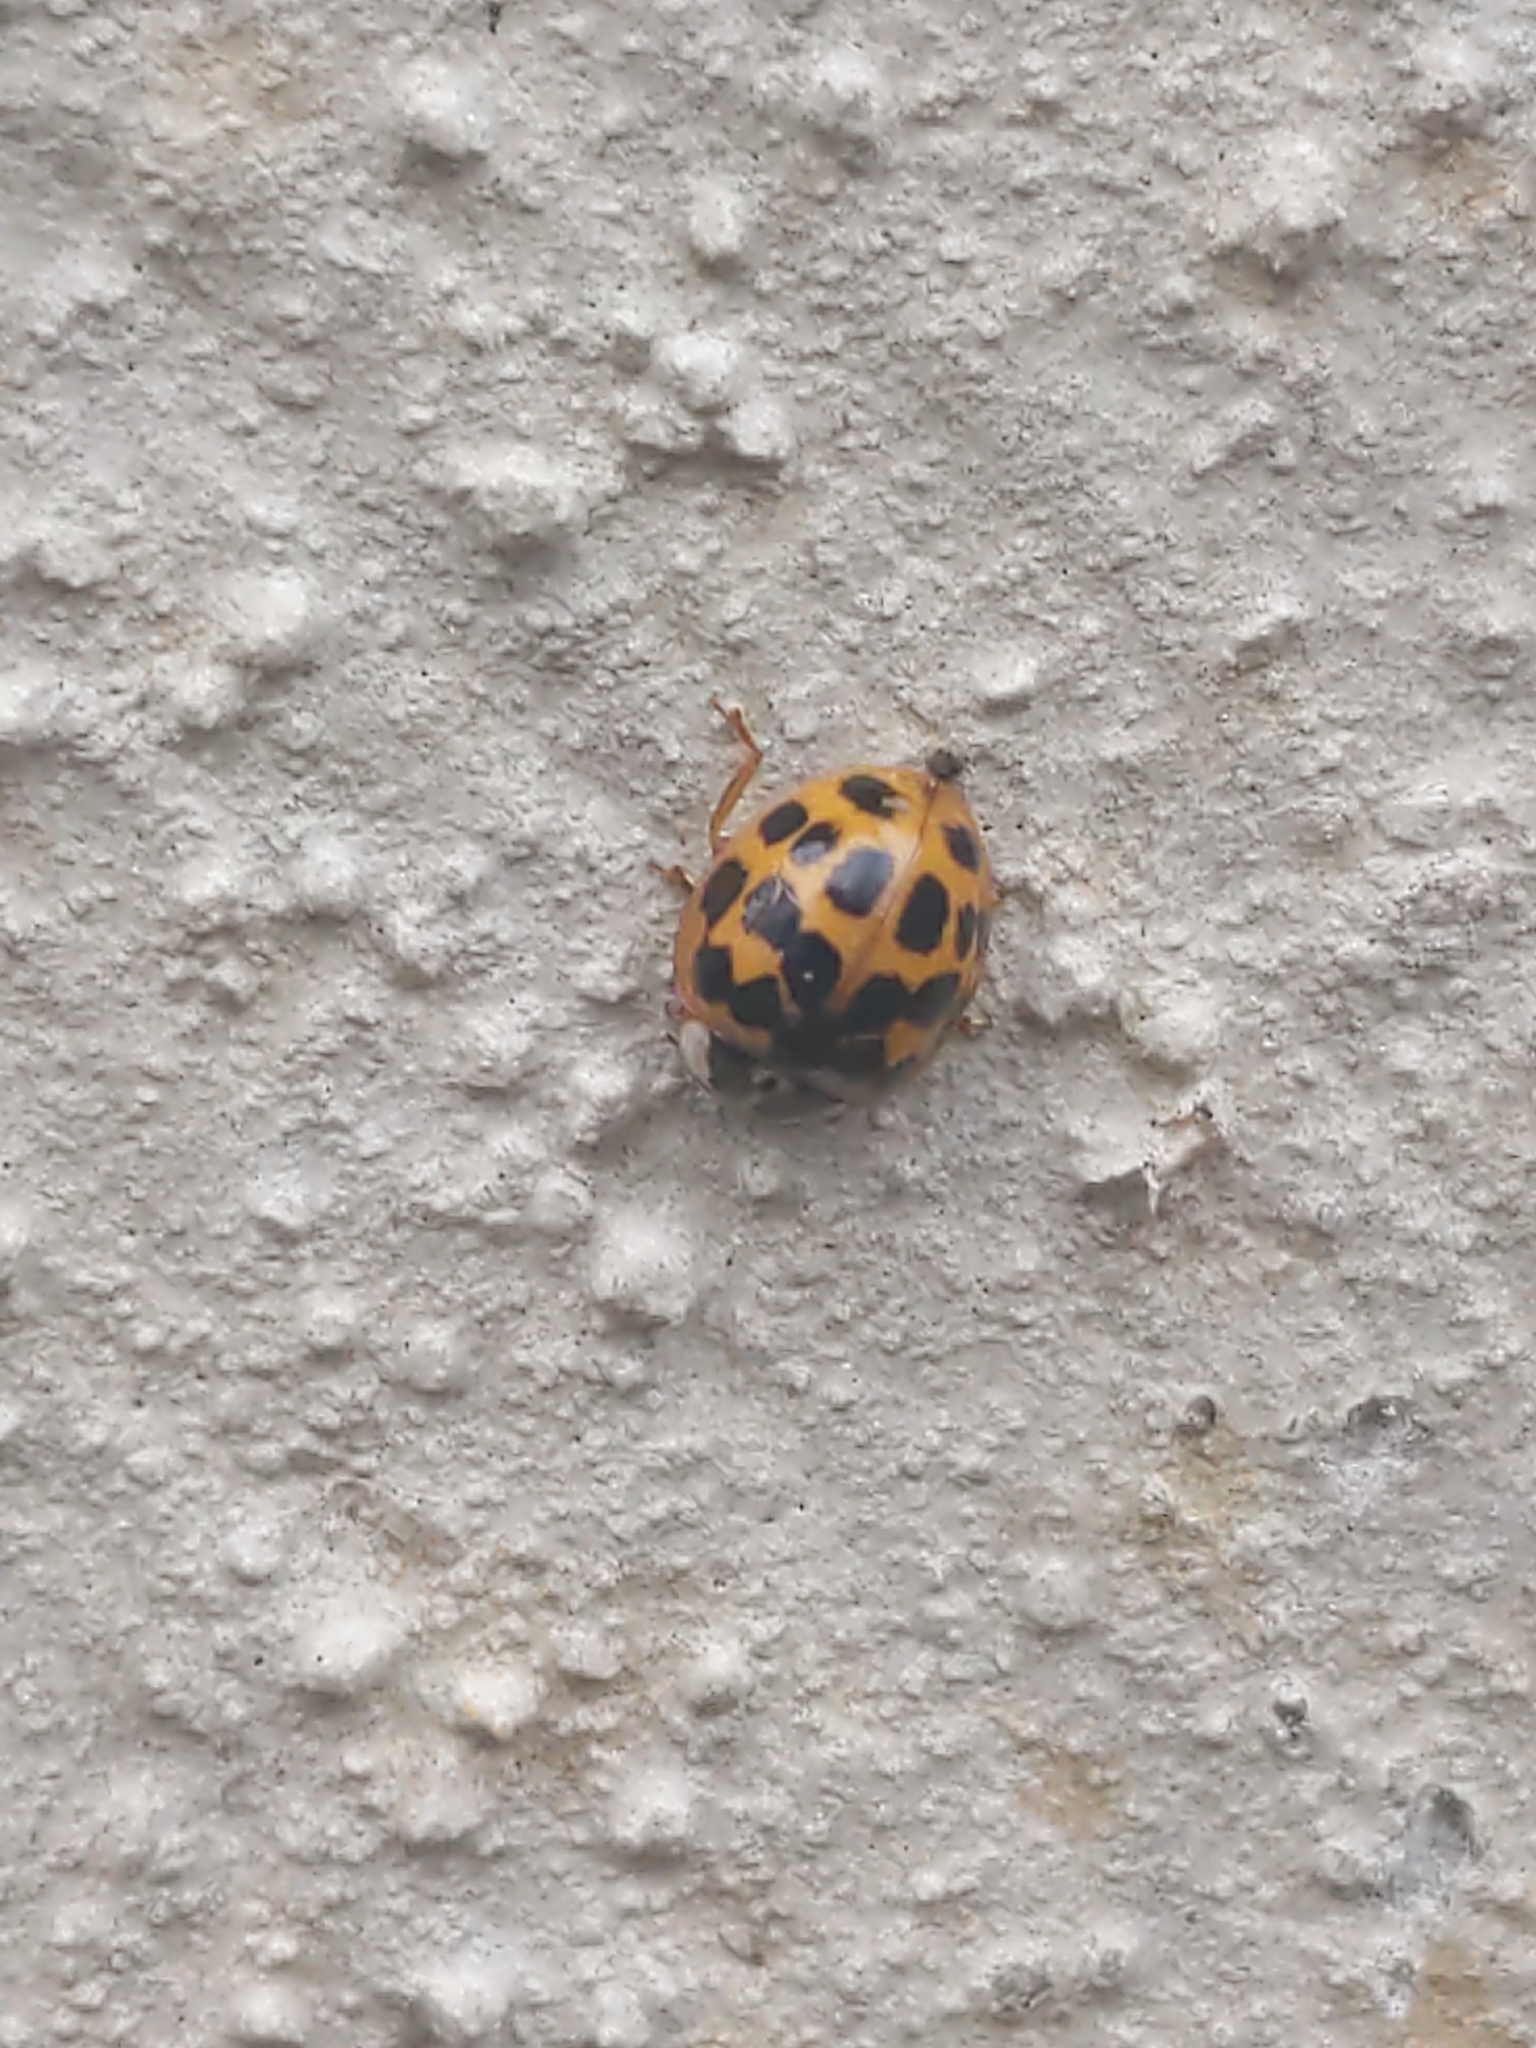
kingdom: Animalia
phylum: Arthropoda
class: Insecta
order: Coleoptera
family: Coccinellidae
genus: Harmonia
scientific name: Harmonia axyridis
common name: Harlequin ladybird
